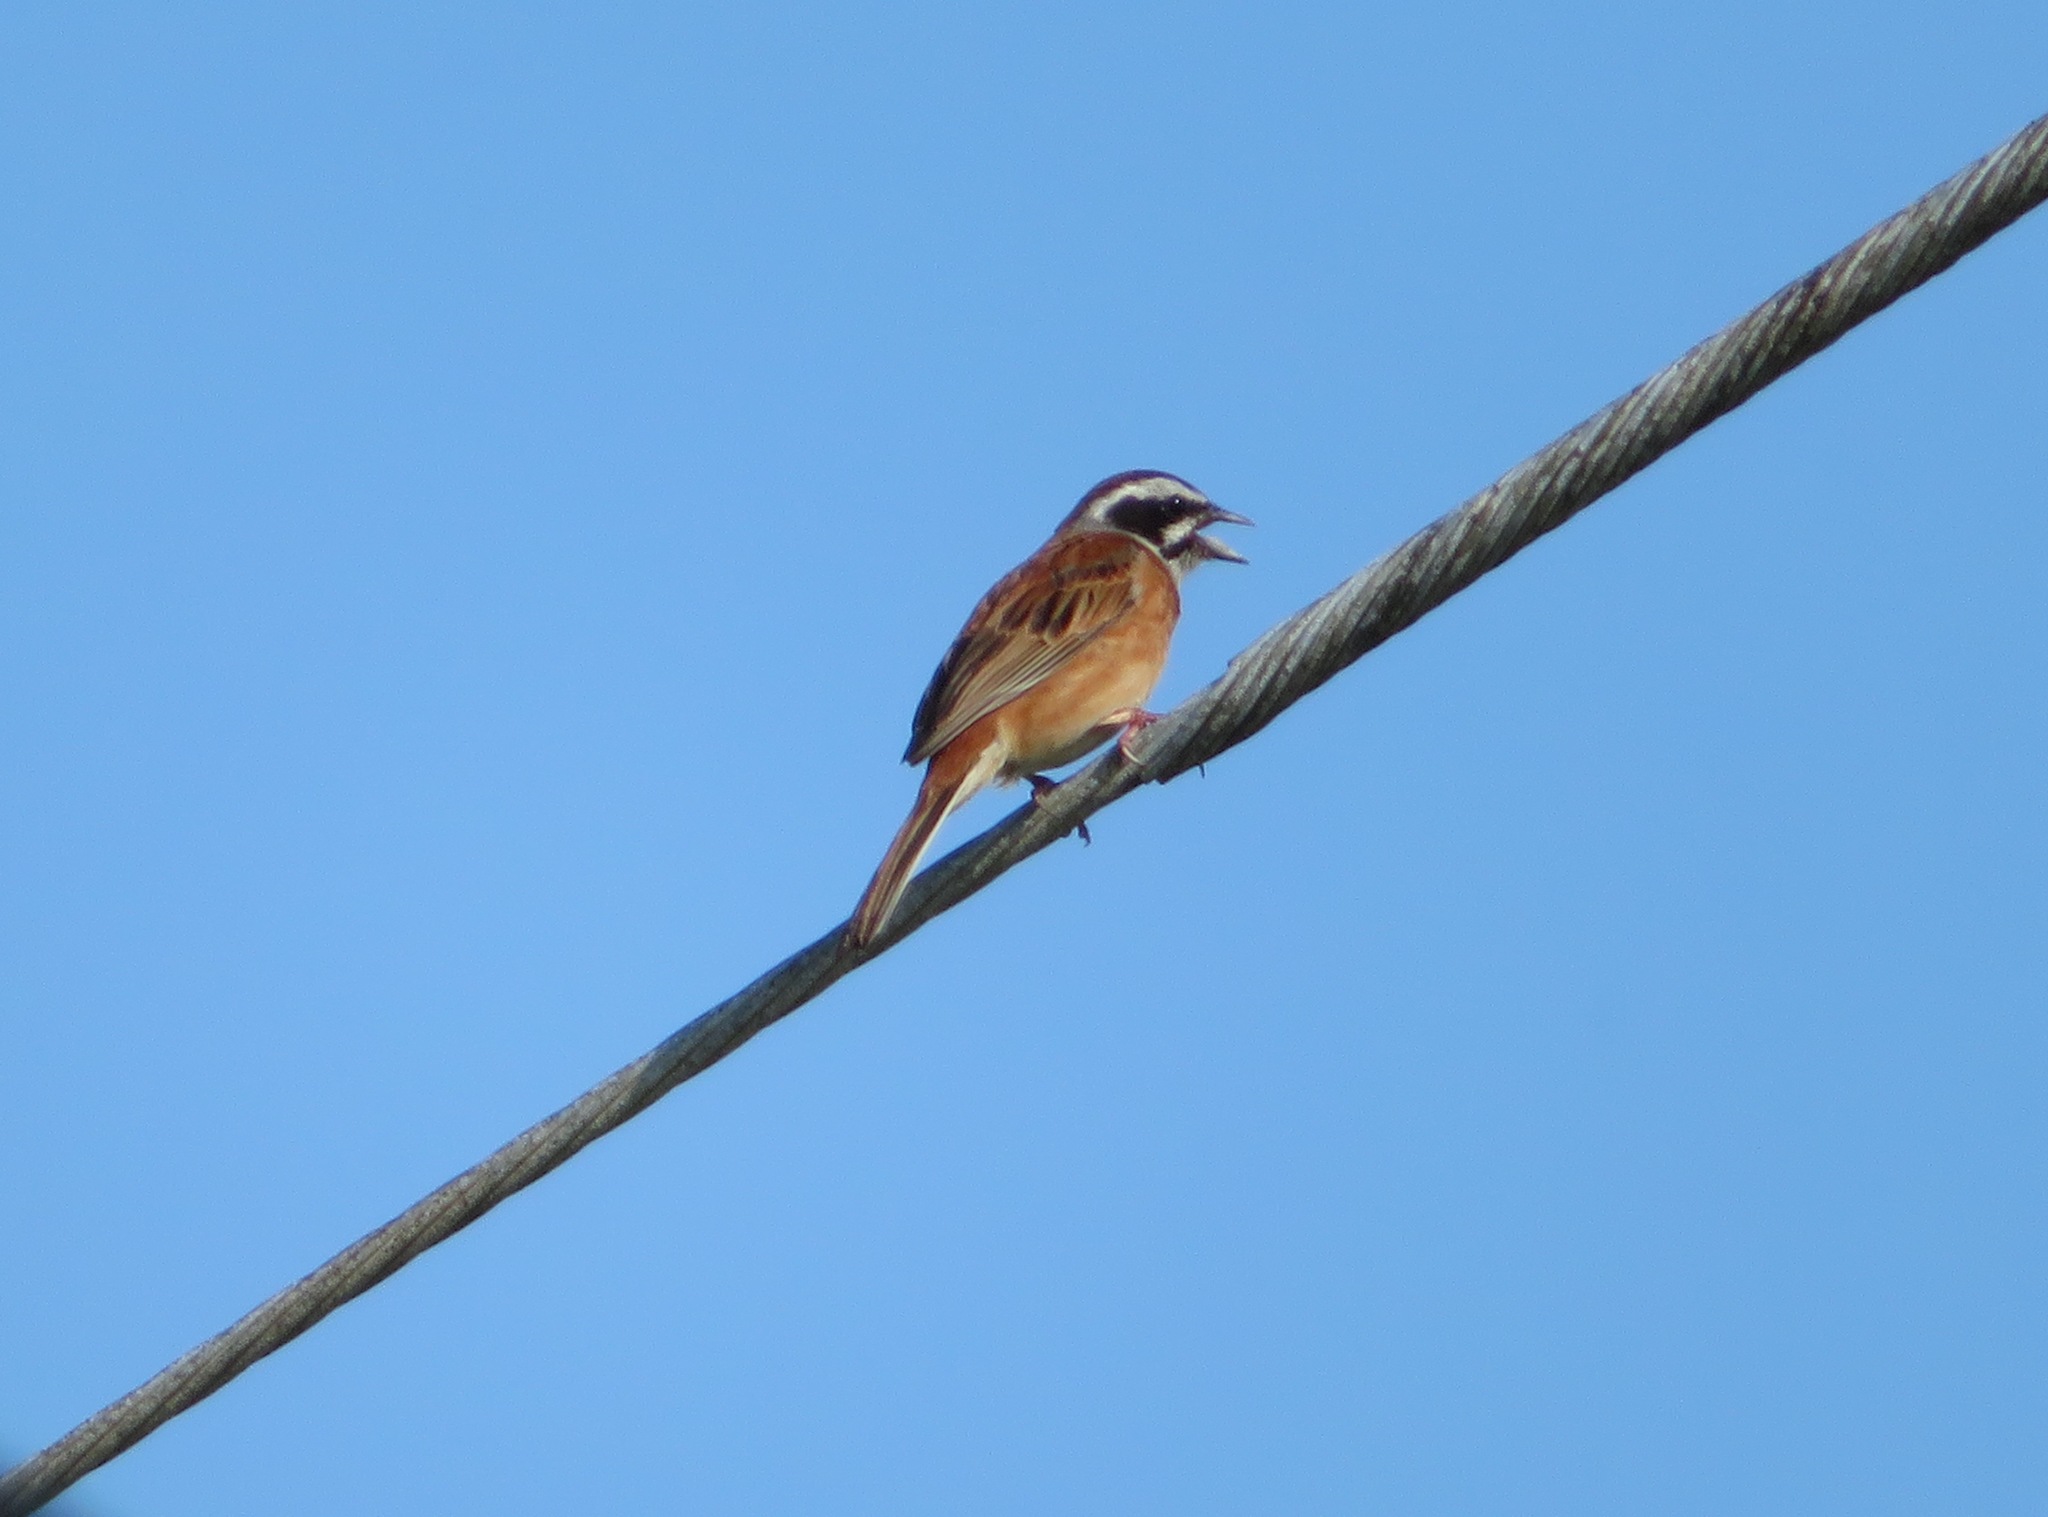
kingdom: Animalia
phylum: Chordata
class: Aves
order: Passeriformes
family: Emberizidae
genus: Emberiza
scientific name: Emberiza cioides
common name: Meadow bunting
